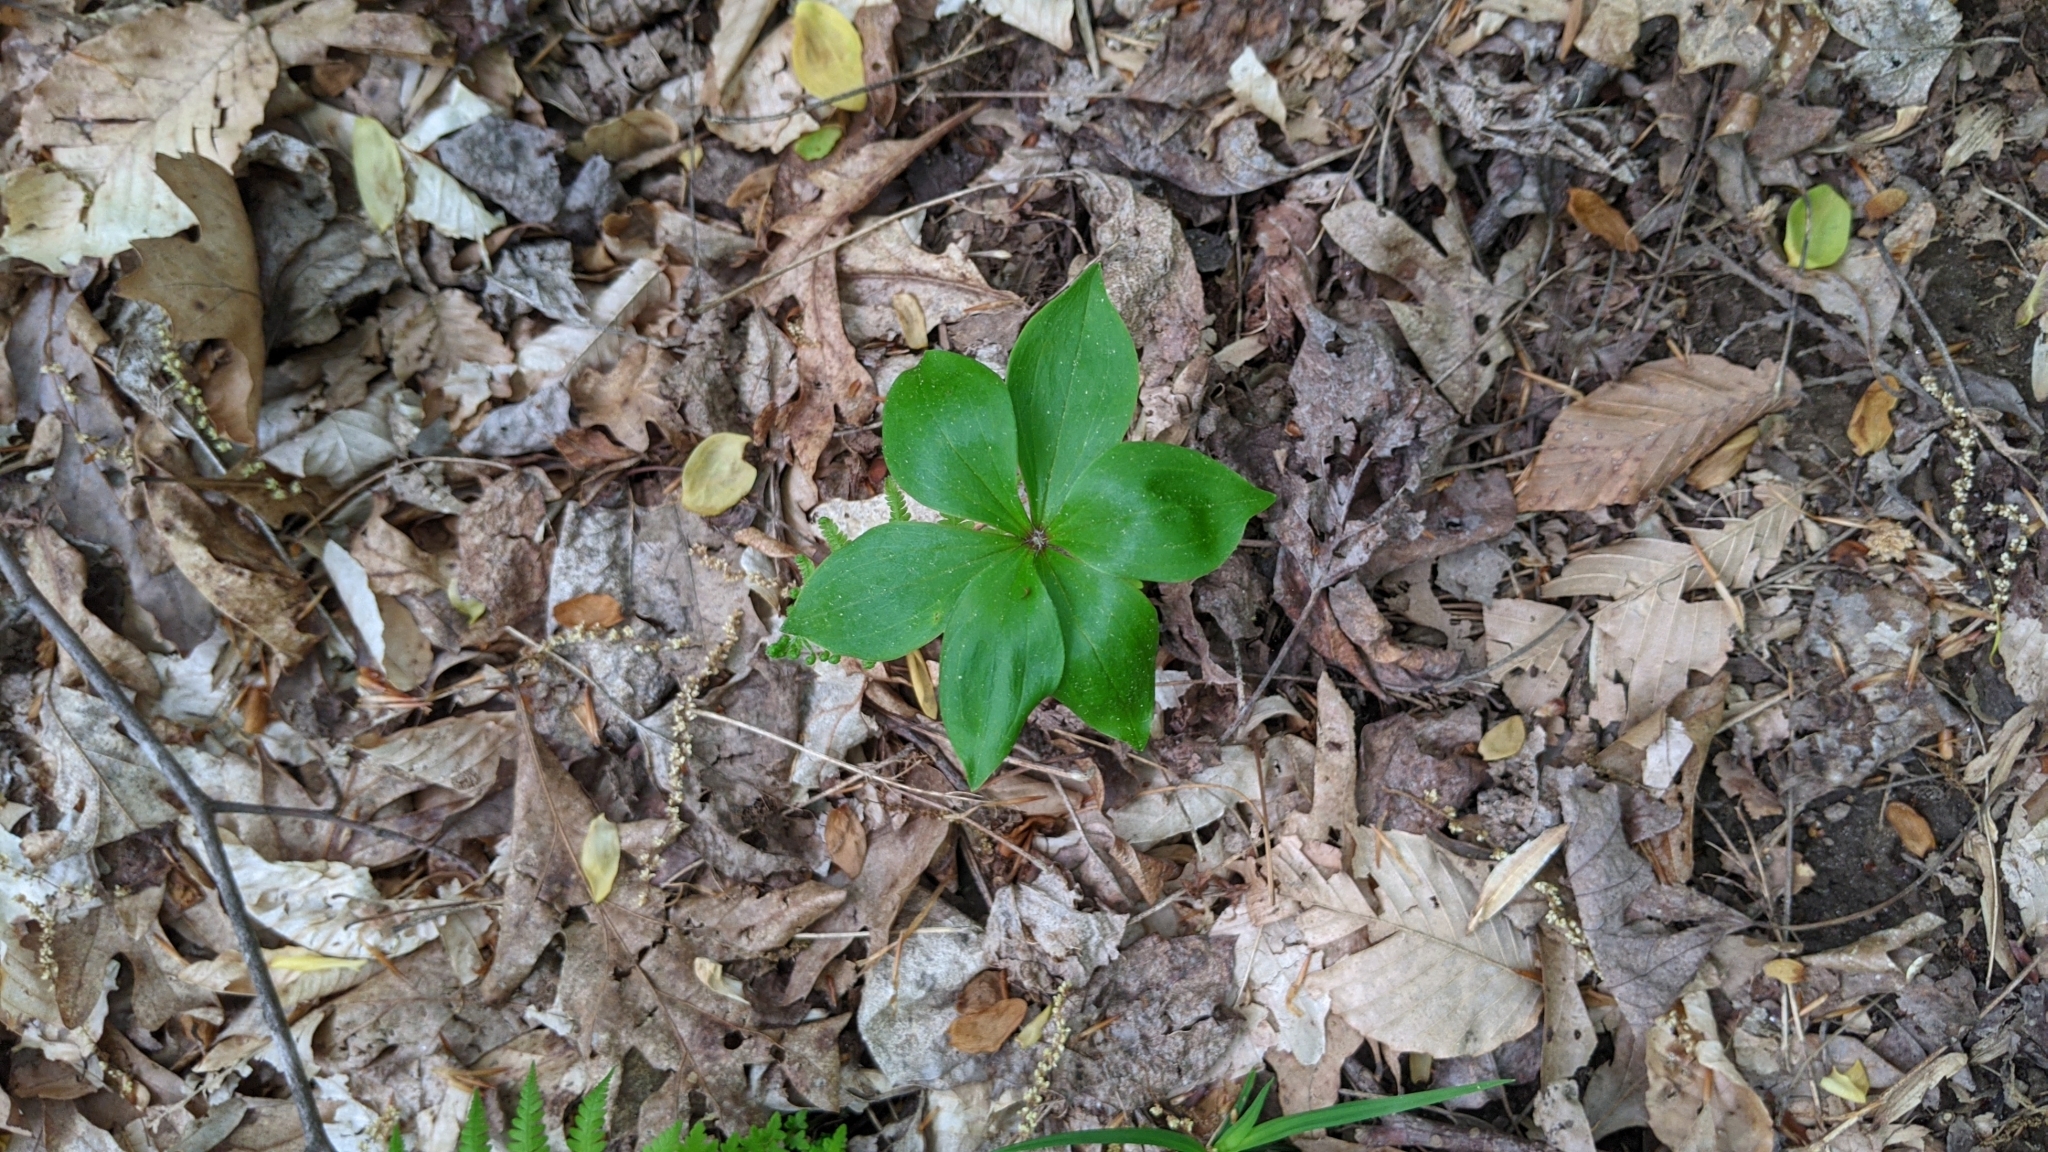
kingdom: Plantae
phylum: Tracheophyta
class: Liliopsida
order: Liliales
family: Liliaceae
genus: Medeola
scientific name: Medeola virginiana
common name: Indian cucumber-root
